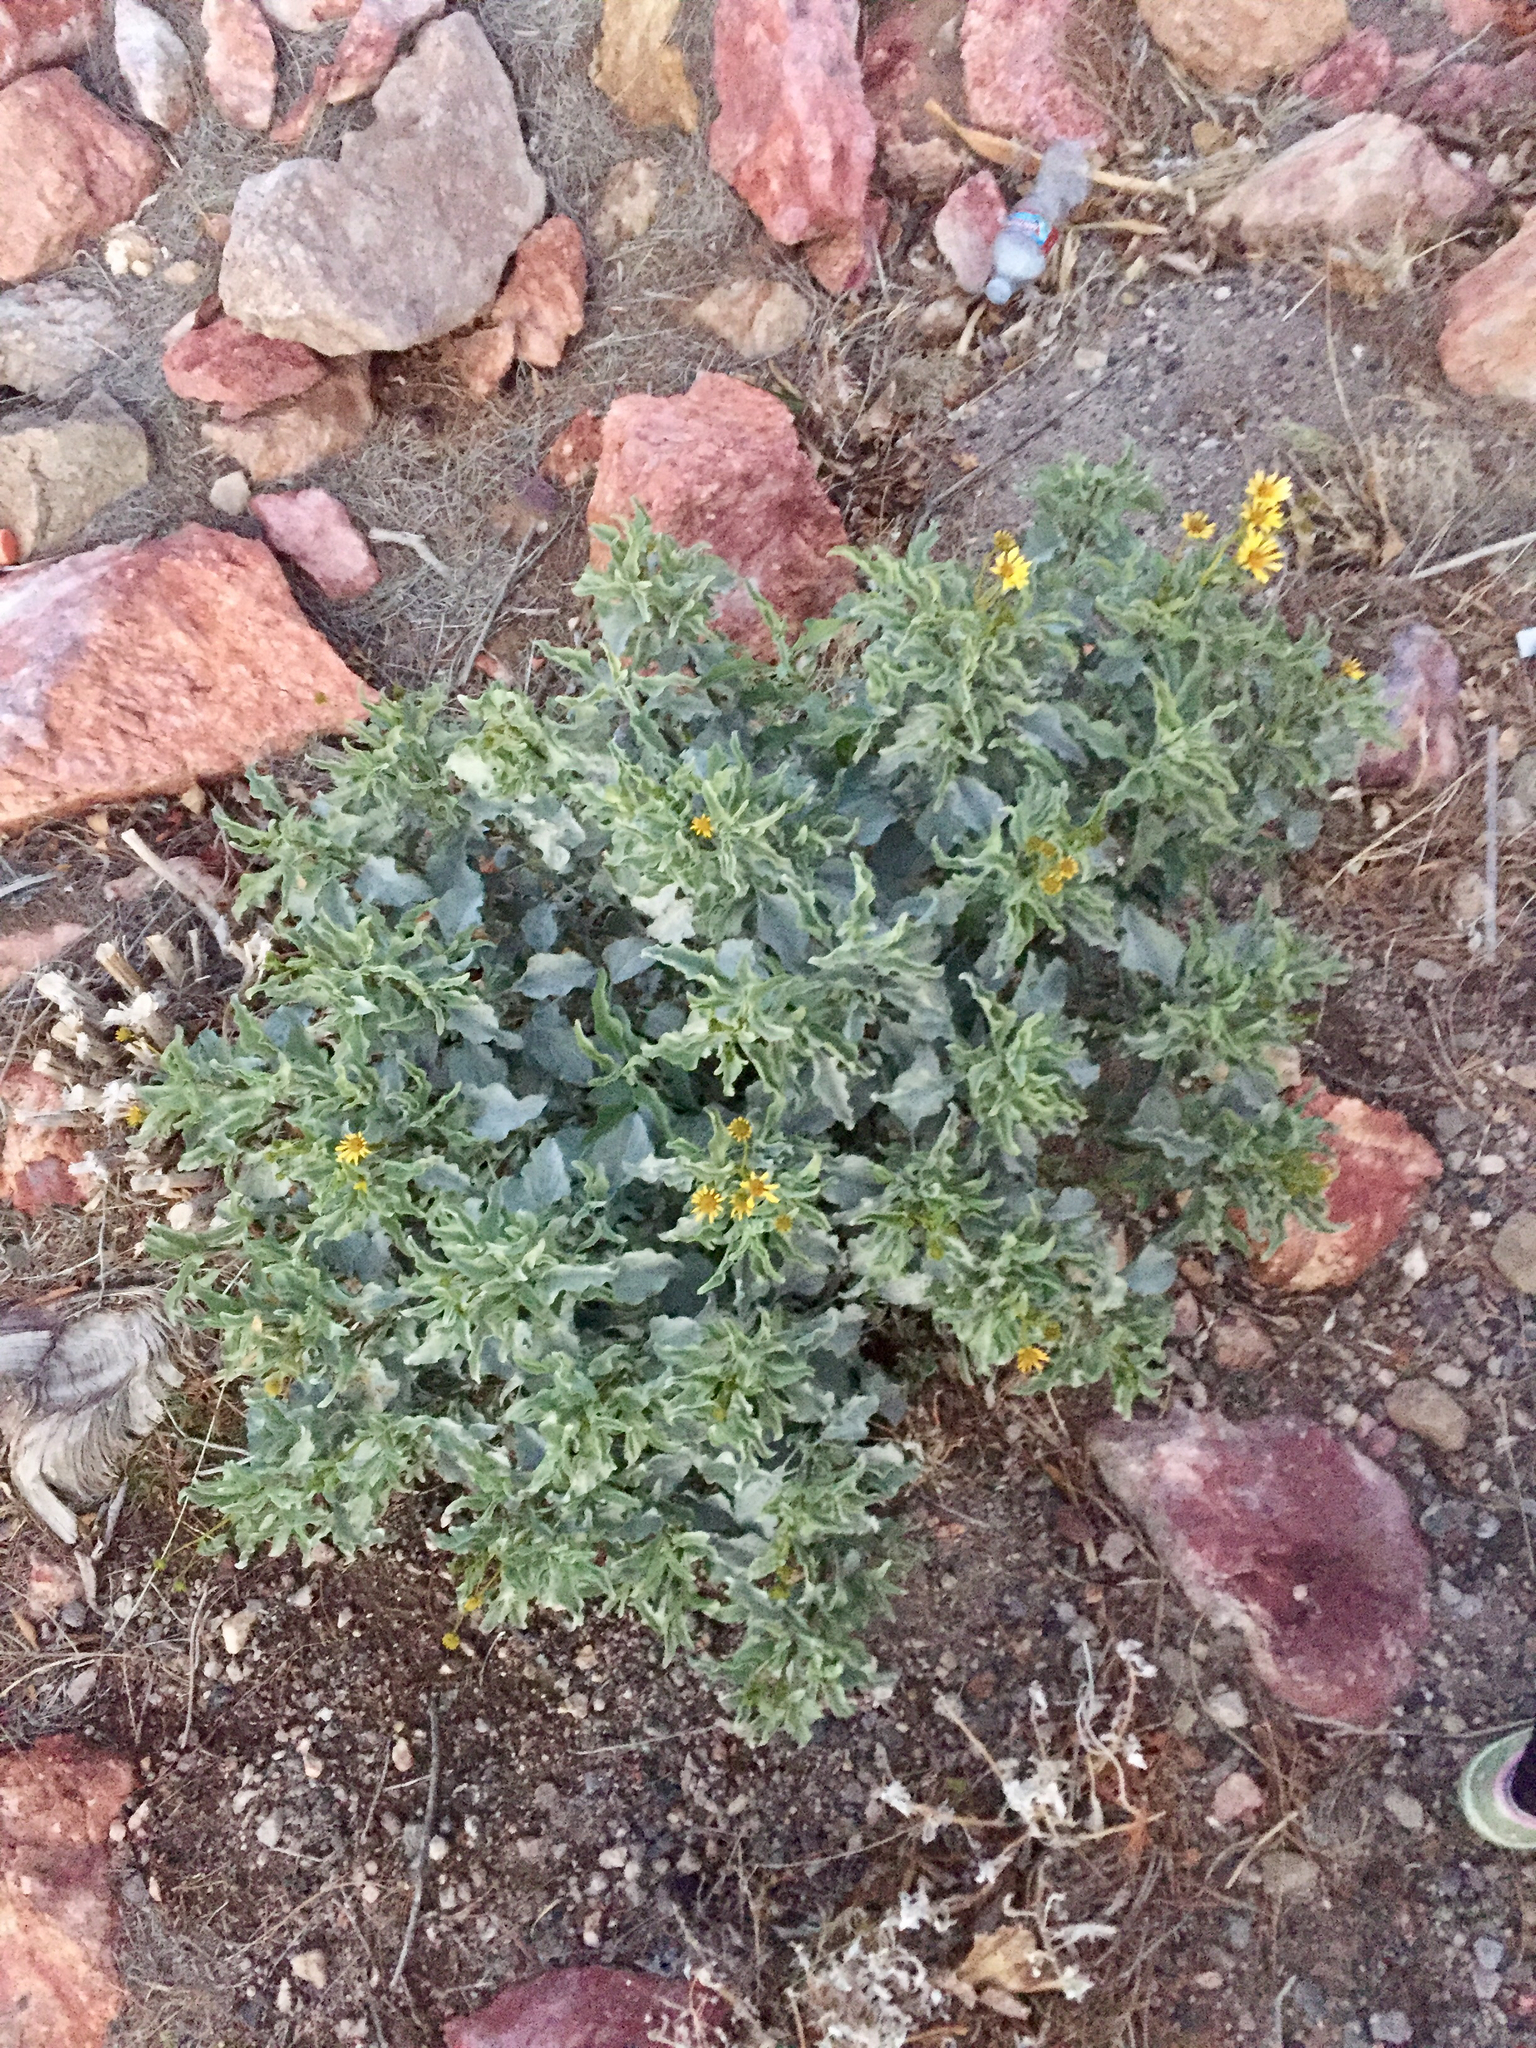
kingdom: Plantae
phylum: Tracheophyta
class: Magnoliopsida
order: Asterales
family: Asteraceae
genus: Encelia
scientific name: Encelia farinosa
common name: Brittlebush
